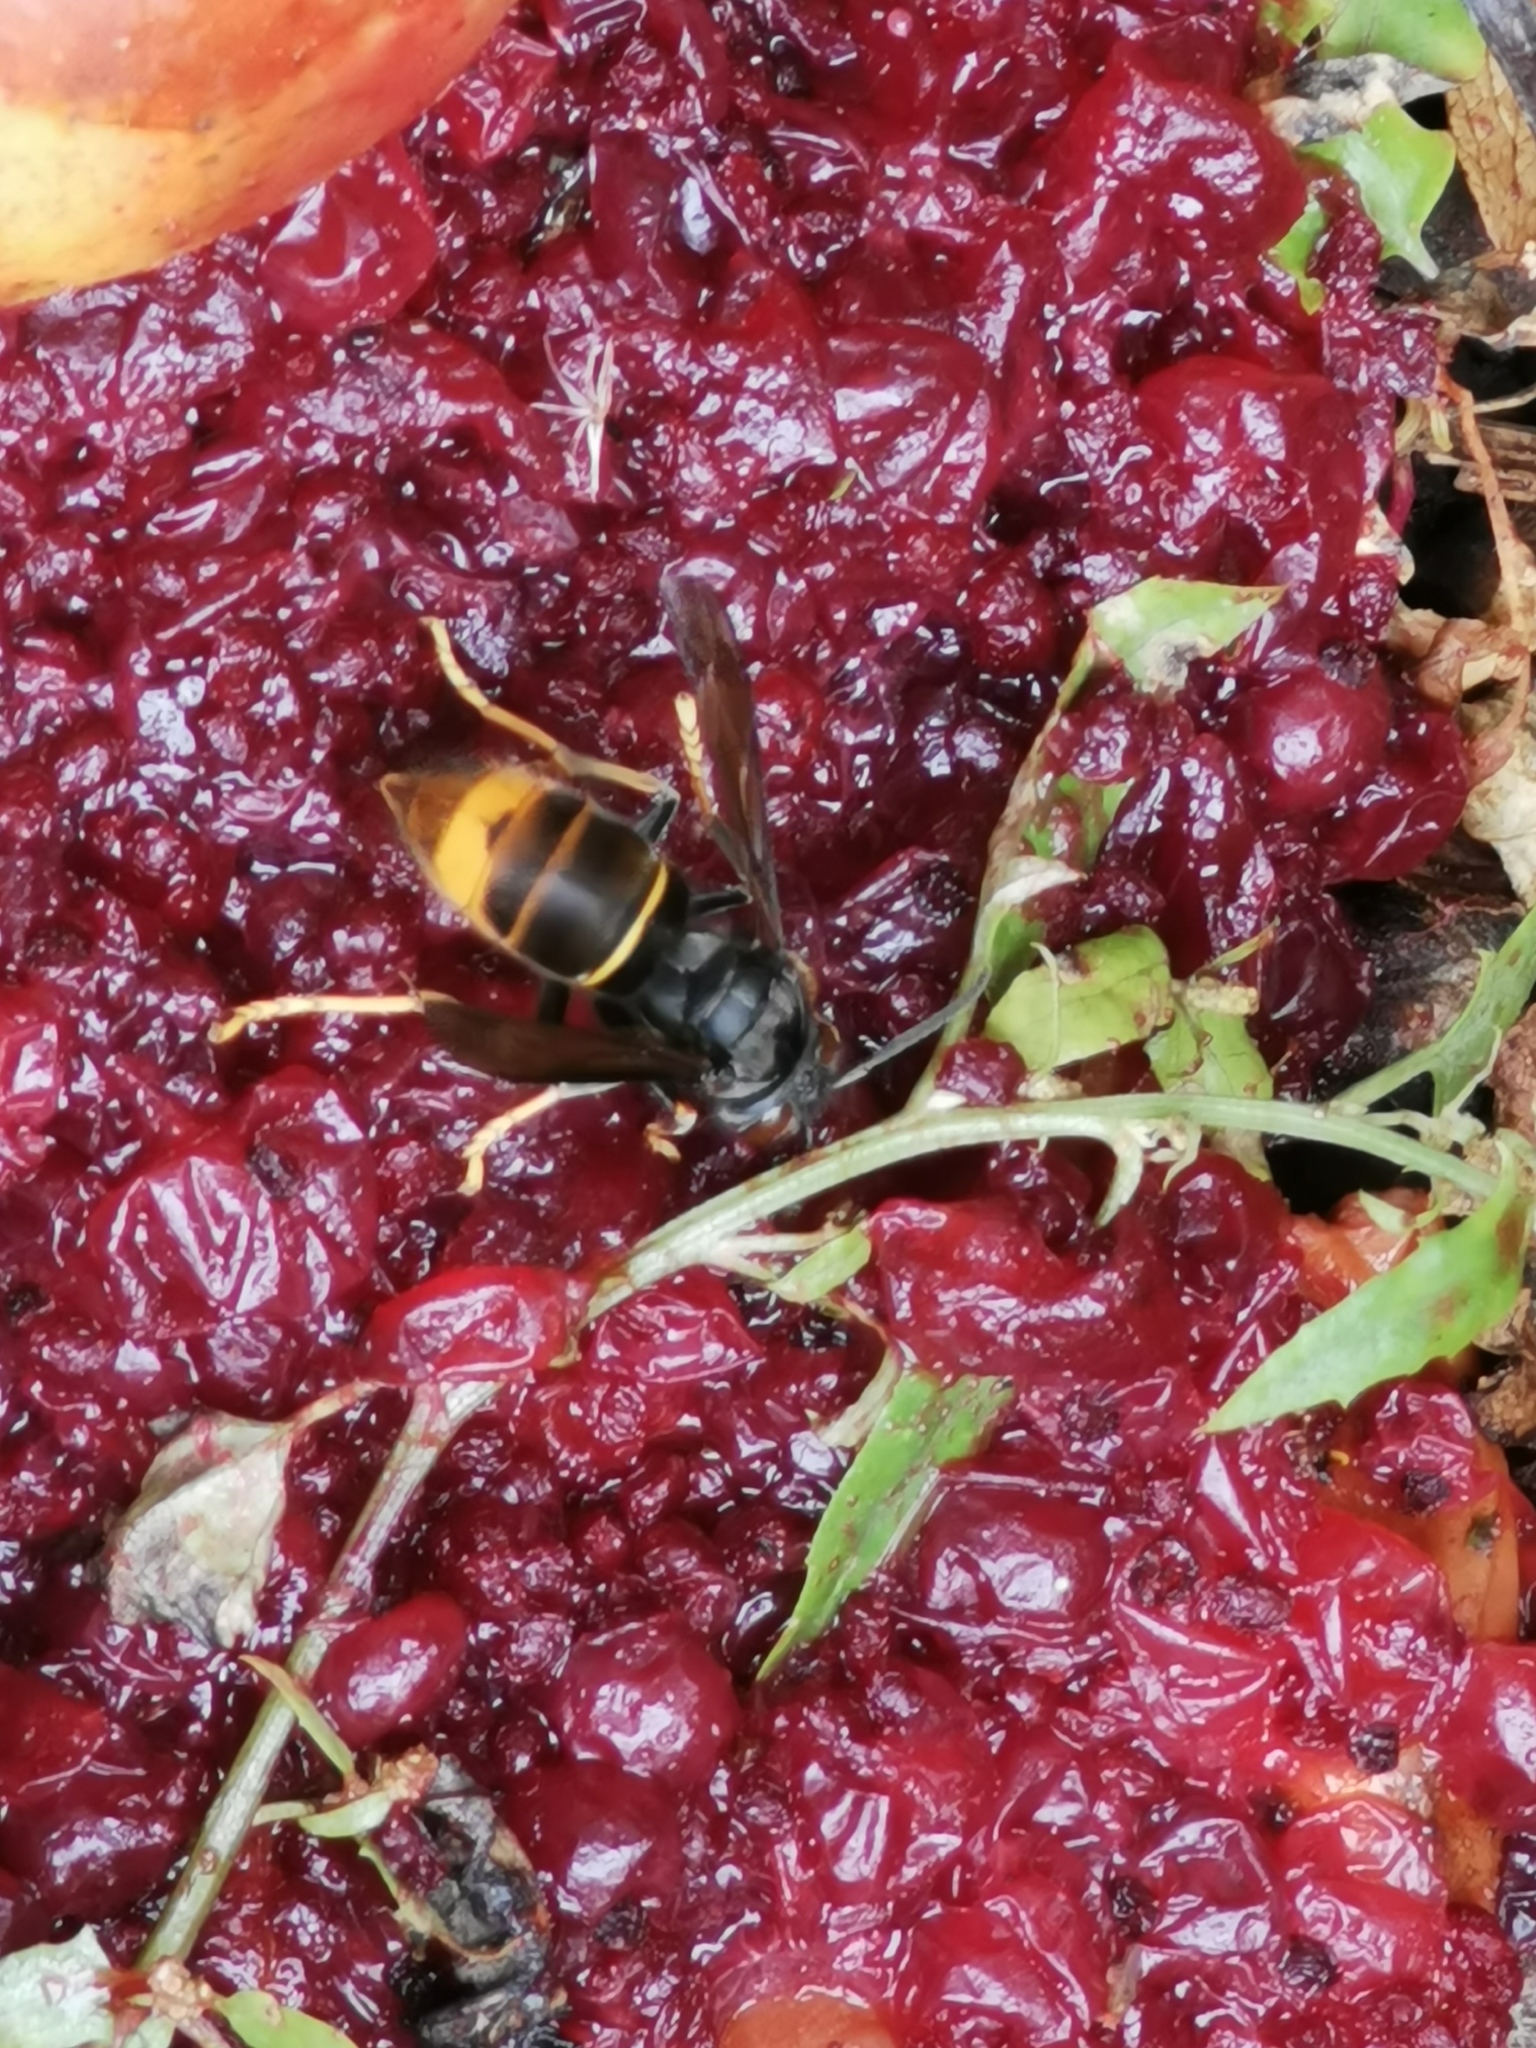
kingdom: Animalia
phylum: Arthropoda
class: Insecta
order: Hymenoptera
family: Vespidae
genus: Vespa
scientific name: Vespa velutina
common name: Asian hornet
